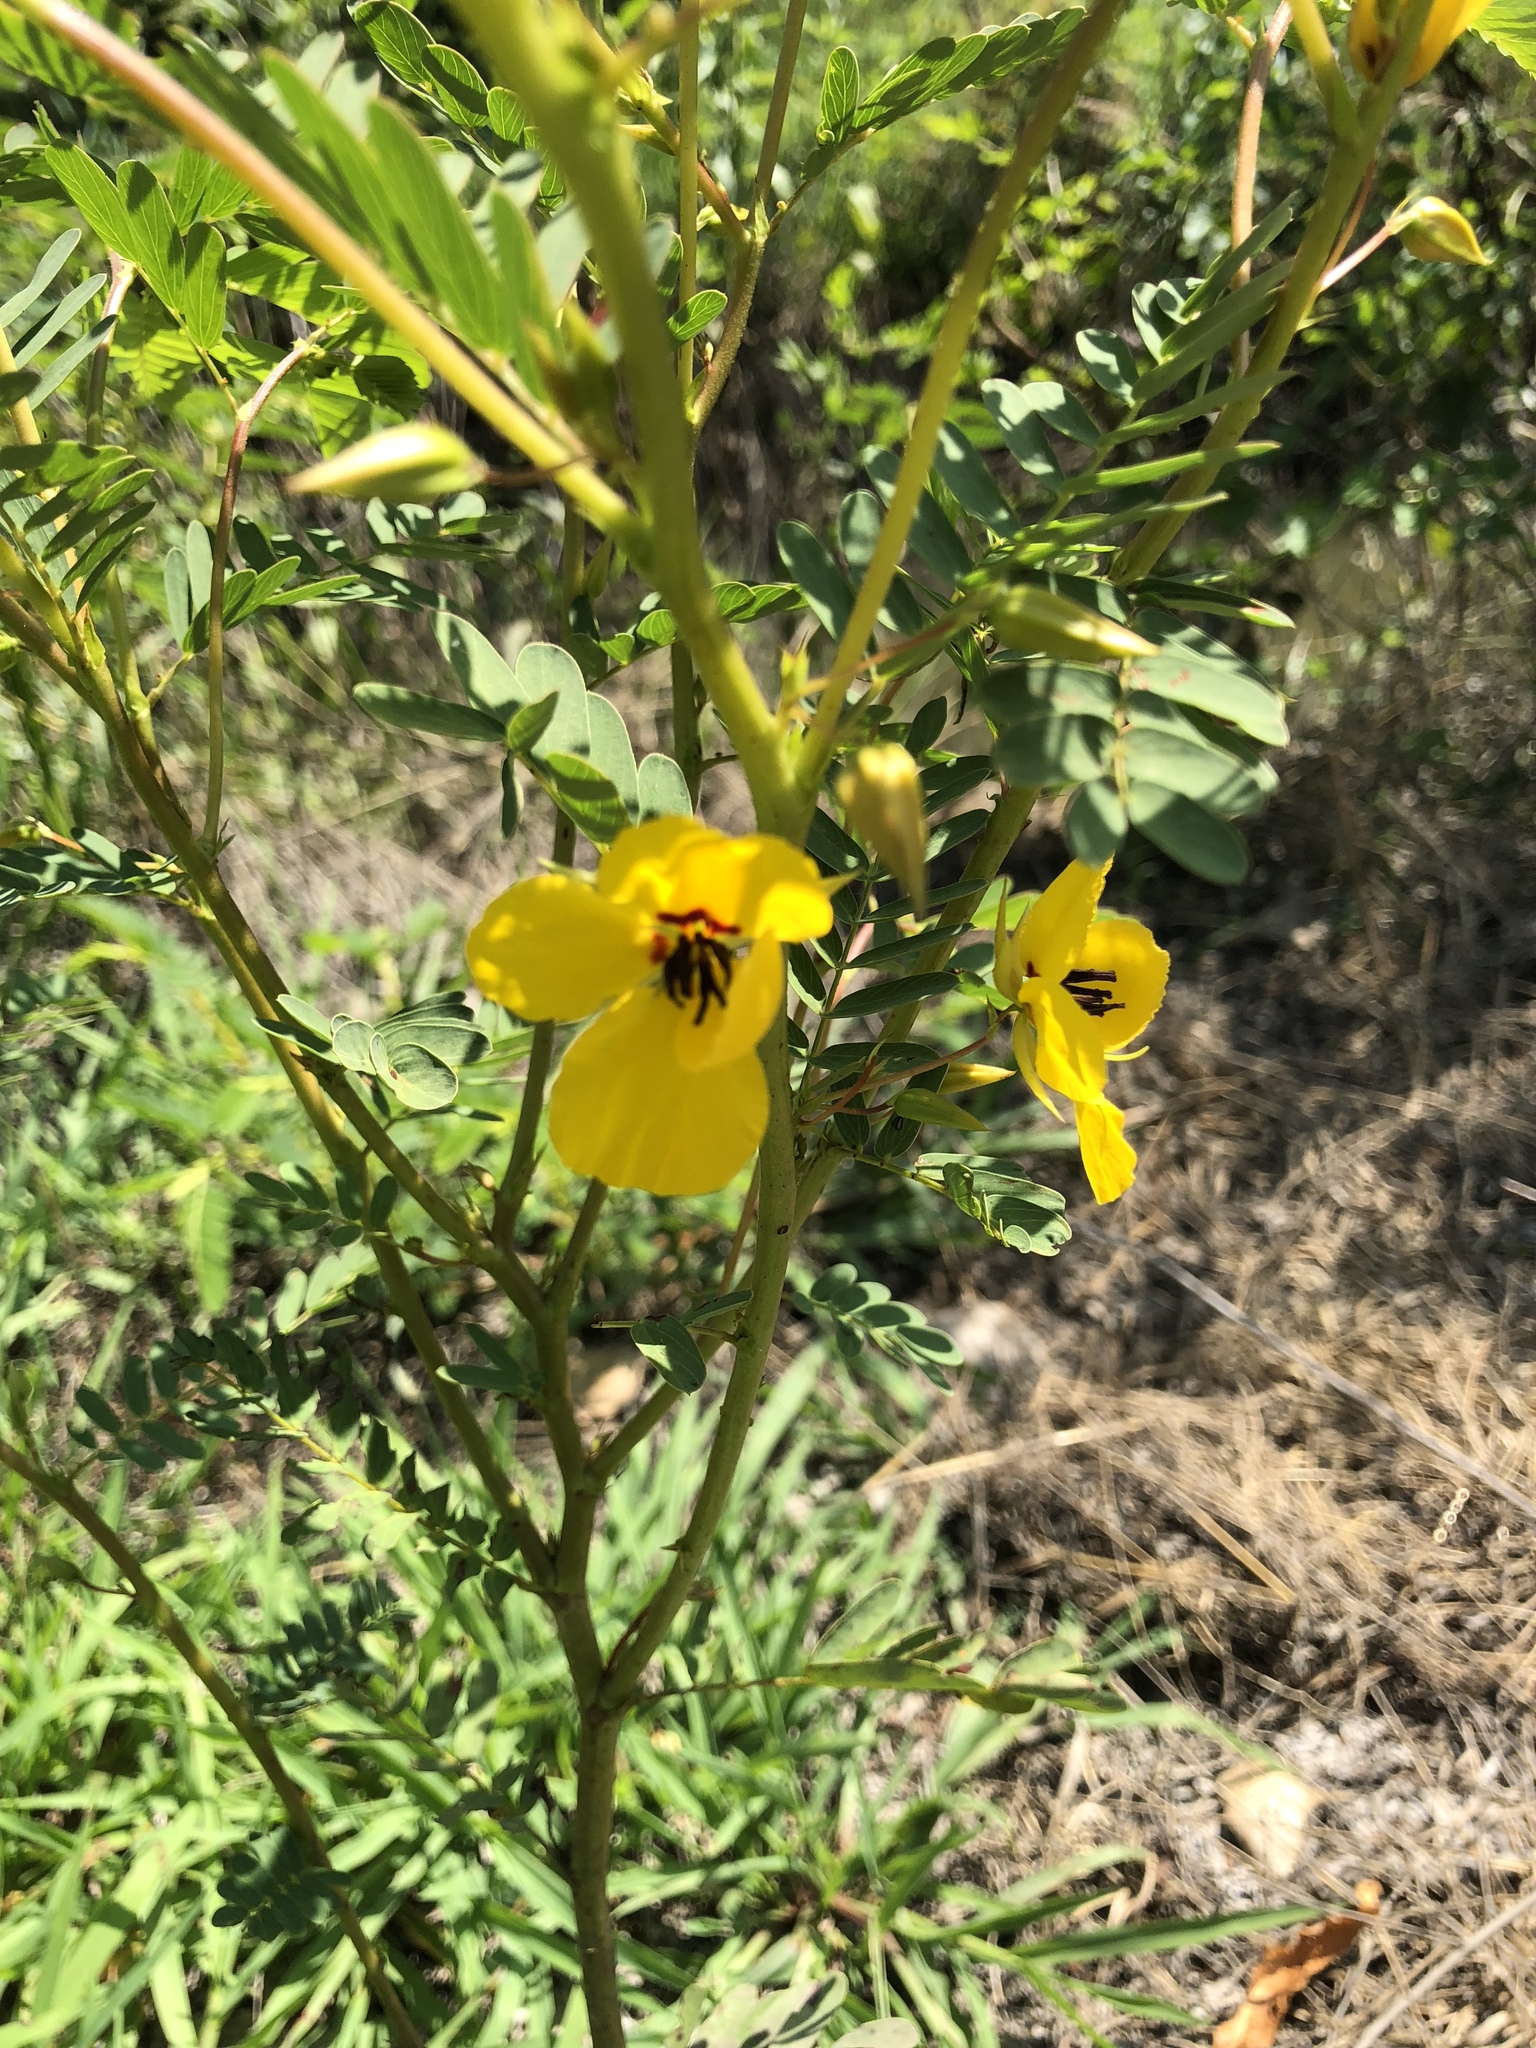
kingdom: Plantae
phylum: Tracheophyta
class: Magnoliopsida
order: Fabales
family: Fabaceae
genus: Chamaecrista
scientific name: Chamaecrista fasciculata
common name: Golden cassia
